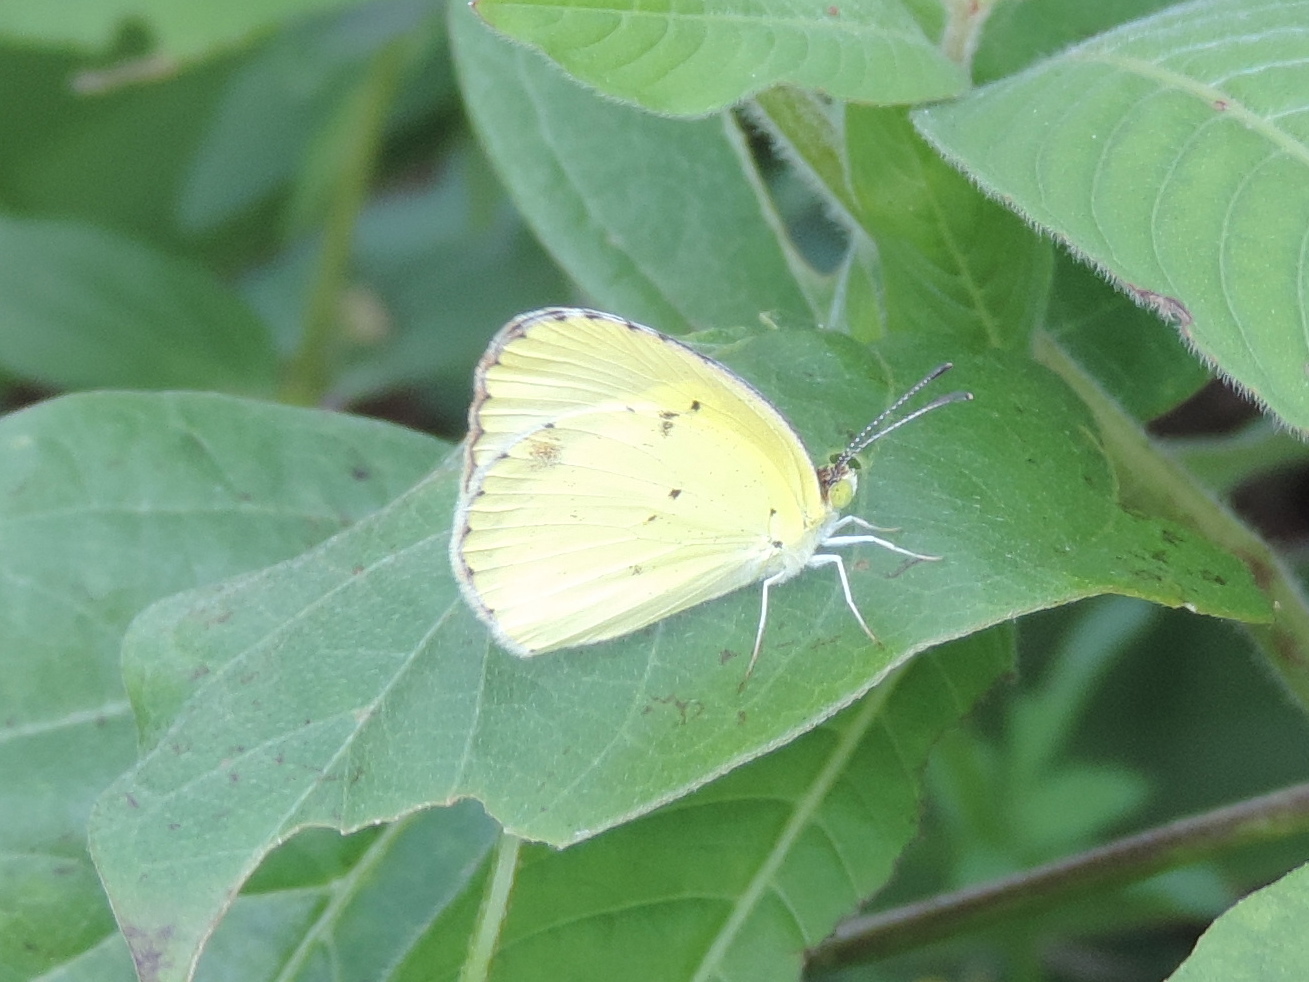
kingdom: Animalia
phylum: Arthropoda
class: Insecta
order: Lepidoptera
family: Pieridae
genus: Pyrisitia
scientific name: Pyrisitia lisa
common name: Little yellow
